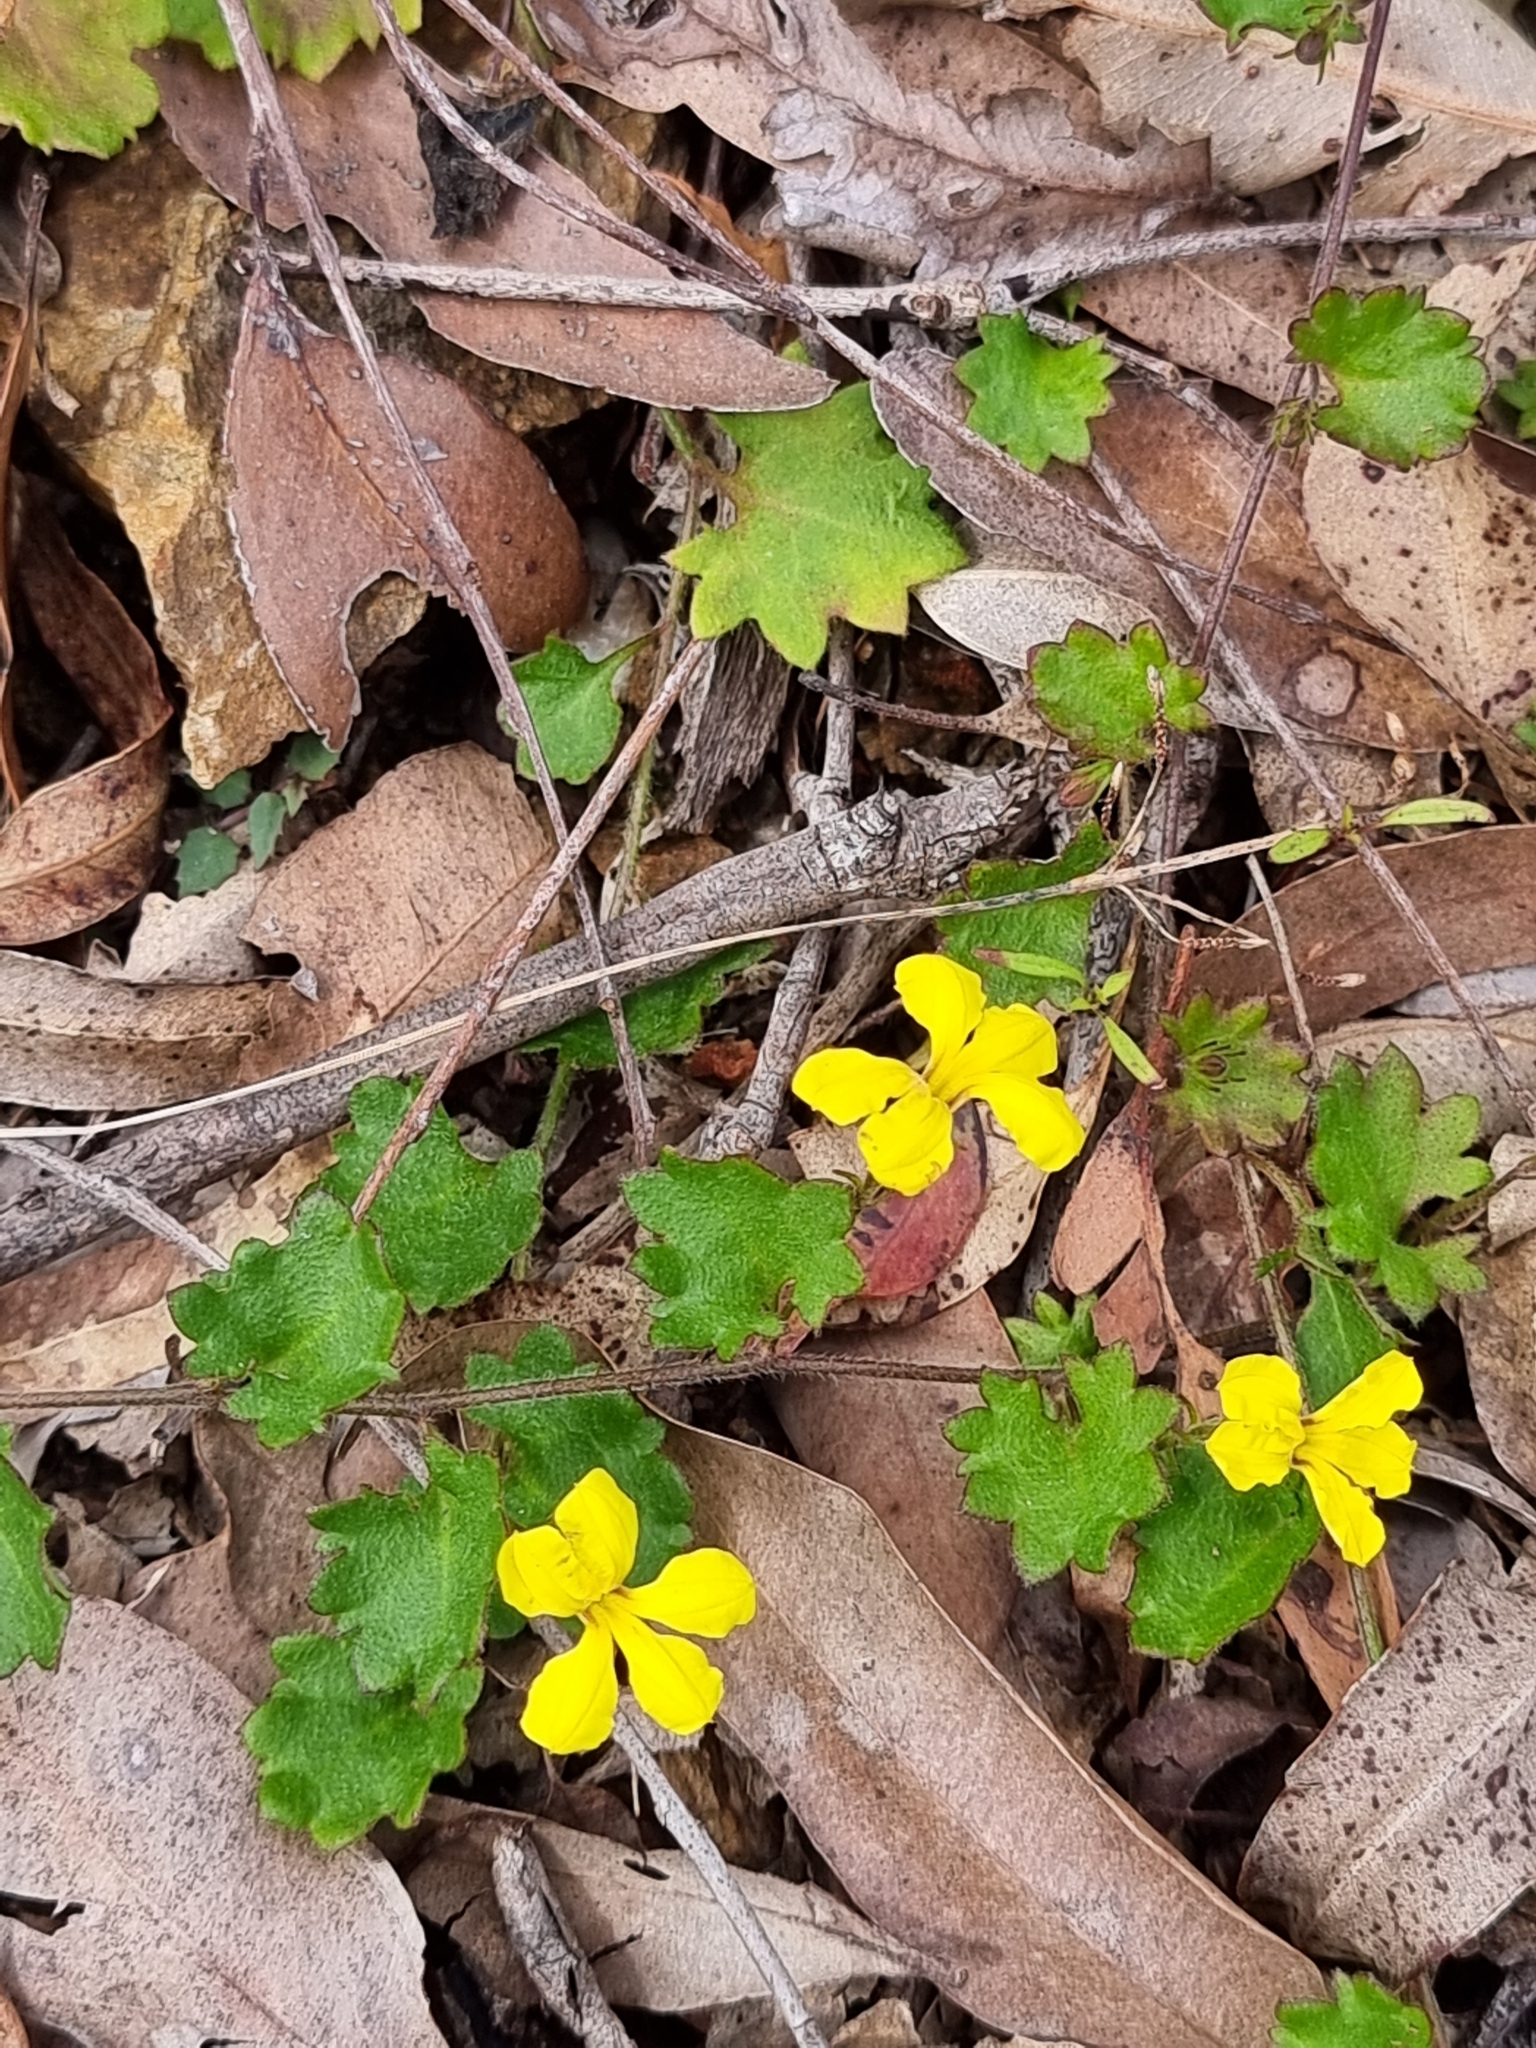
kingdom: Plantae
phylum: Tracheophyta
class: Magnoliopsida
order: Asterales
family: Goodeniaceae
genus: Goodenia
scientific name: Goodenia rotundifolia
